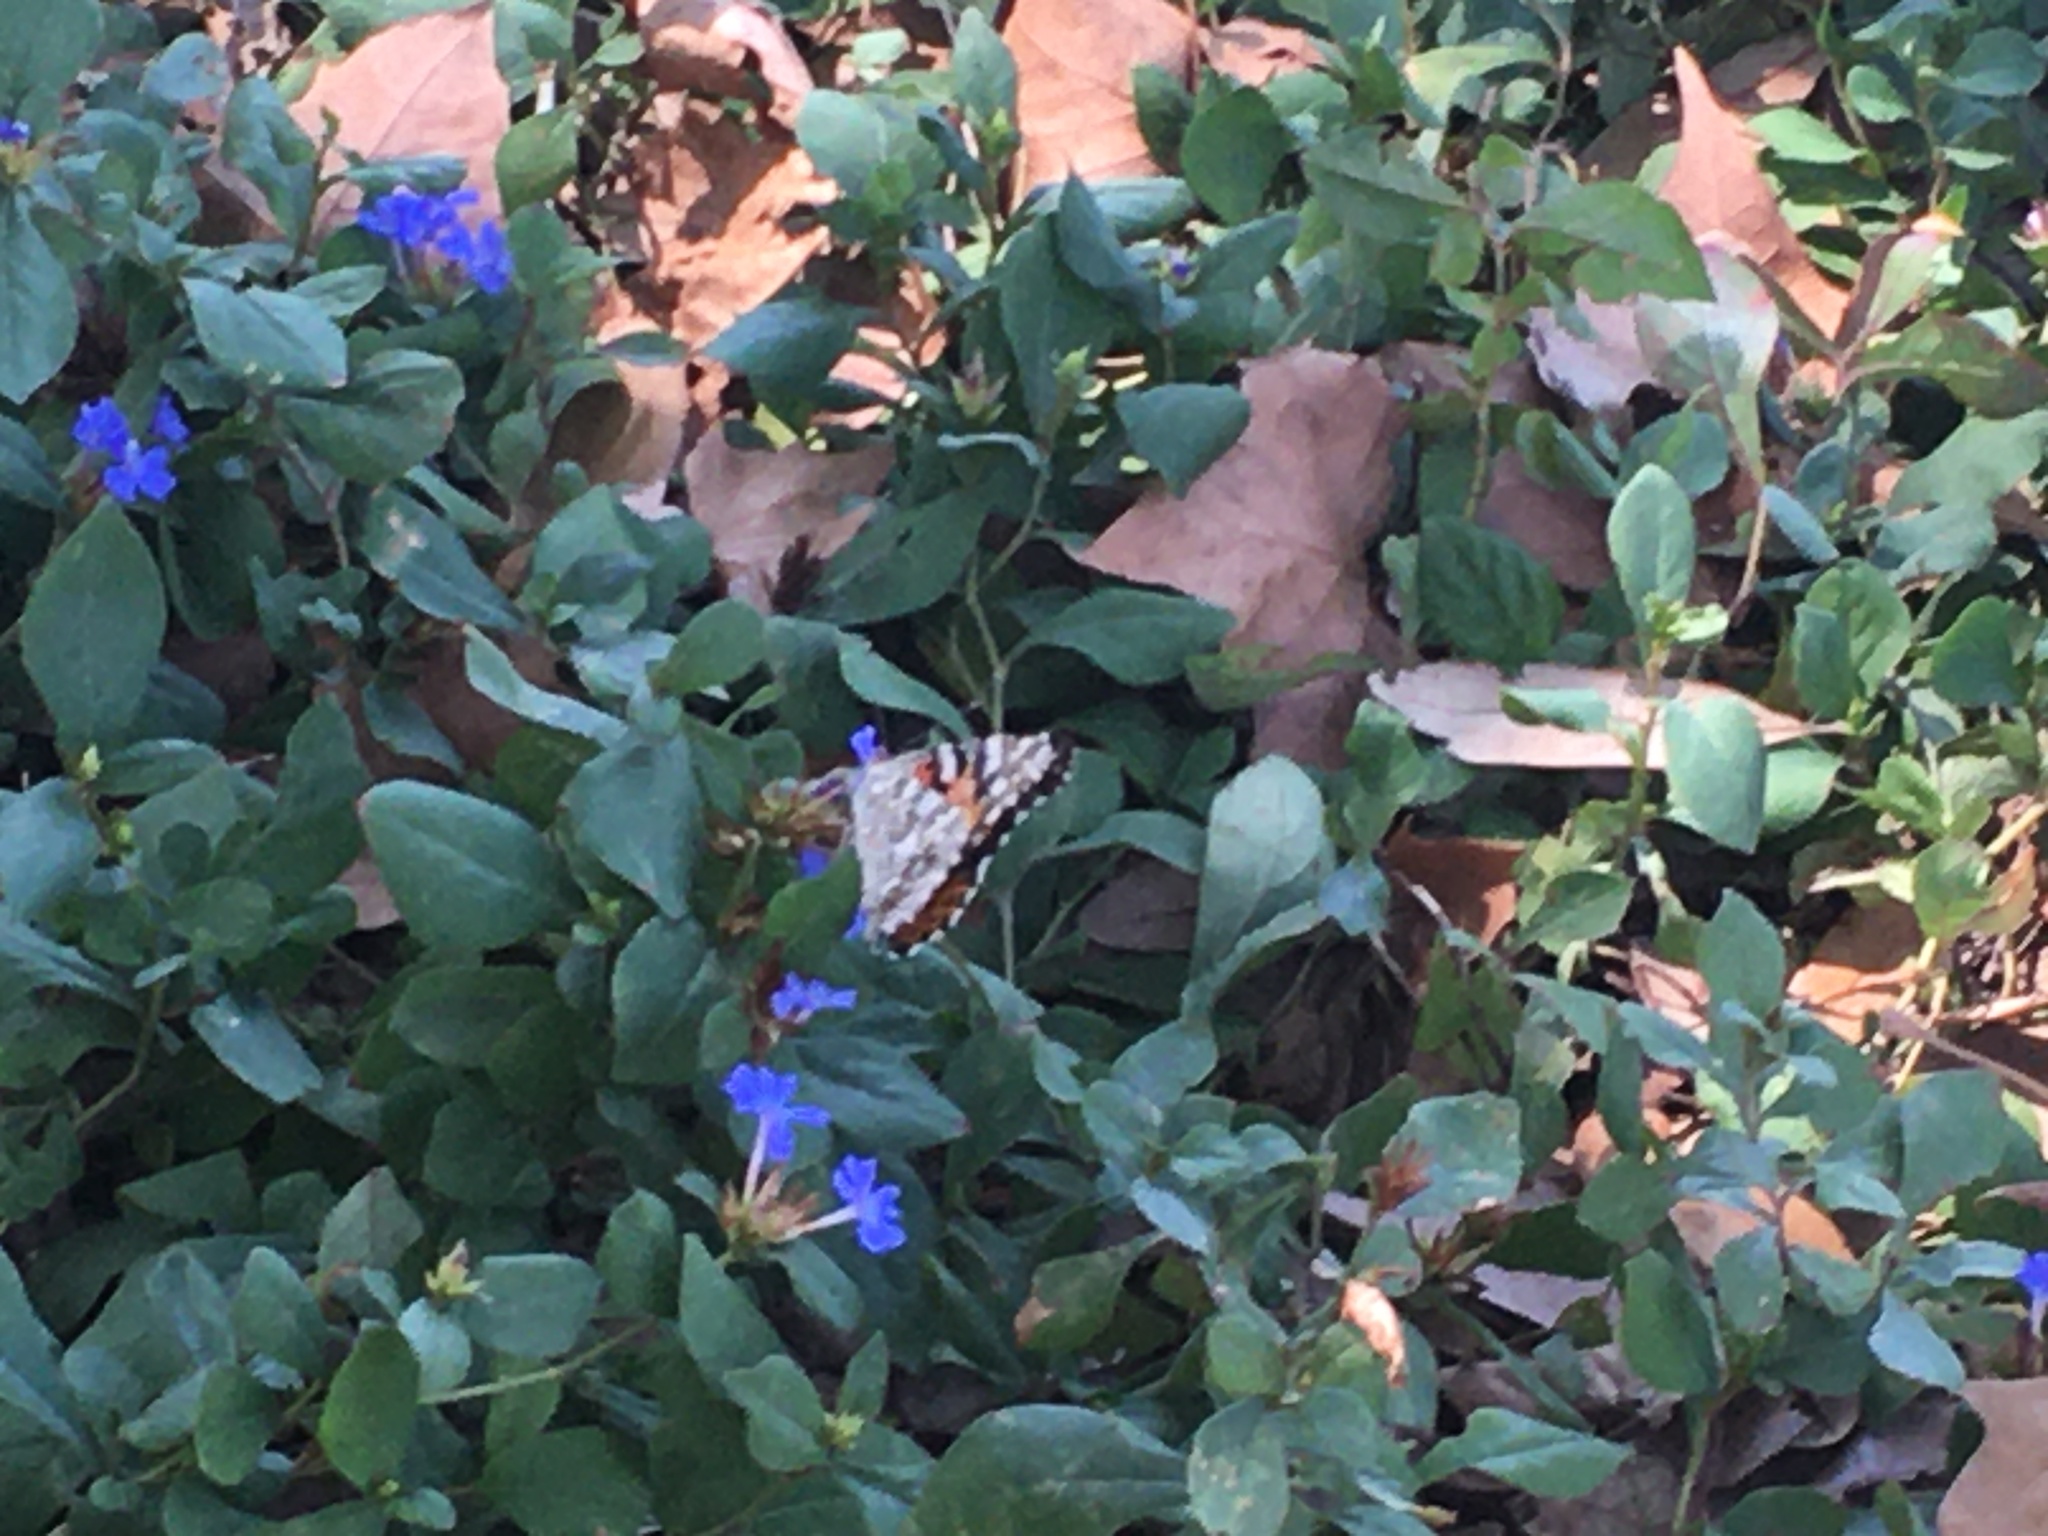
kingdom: Animalia
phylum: Arthropoda
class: Insecta
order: Lepidoptera
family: Nymphalidae
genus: Vanessa
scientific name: Vanessa cardui
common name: Painted lady
